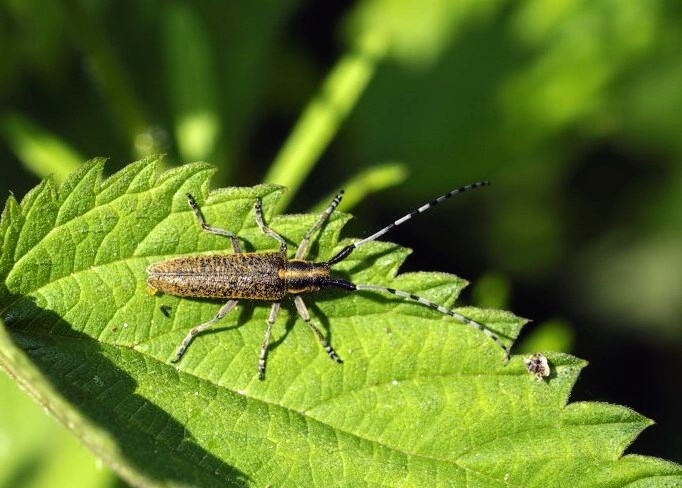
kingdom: Animalia
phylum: Arthropoda
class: Insecta
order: Coleoptera
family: Cerambycidae
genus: Agapanthia
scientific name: Agapanthia villosoviridescens
